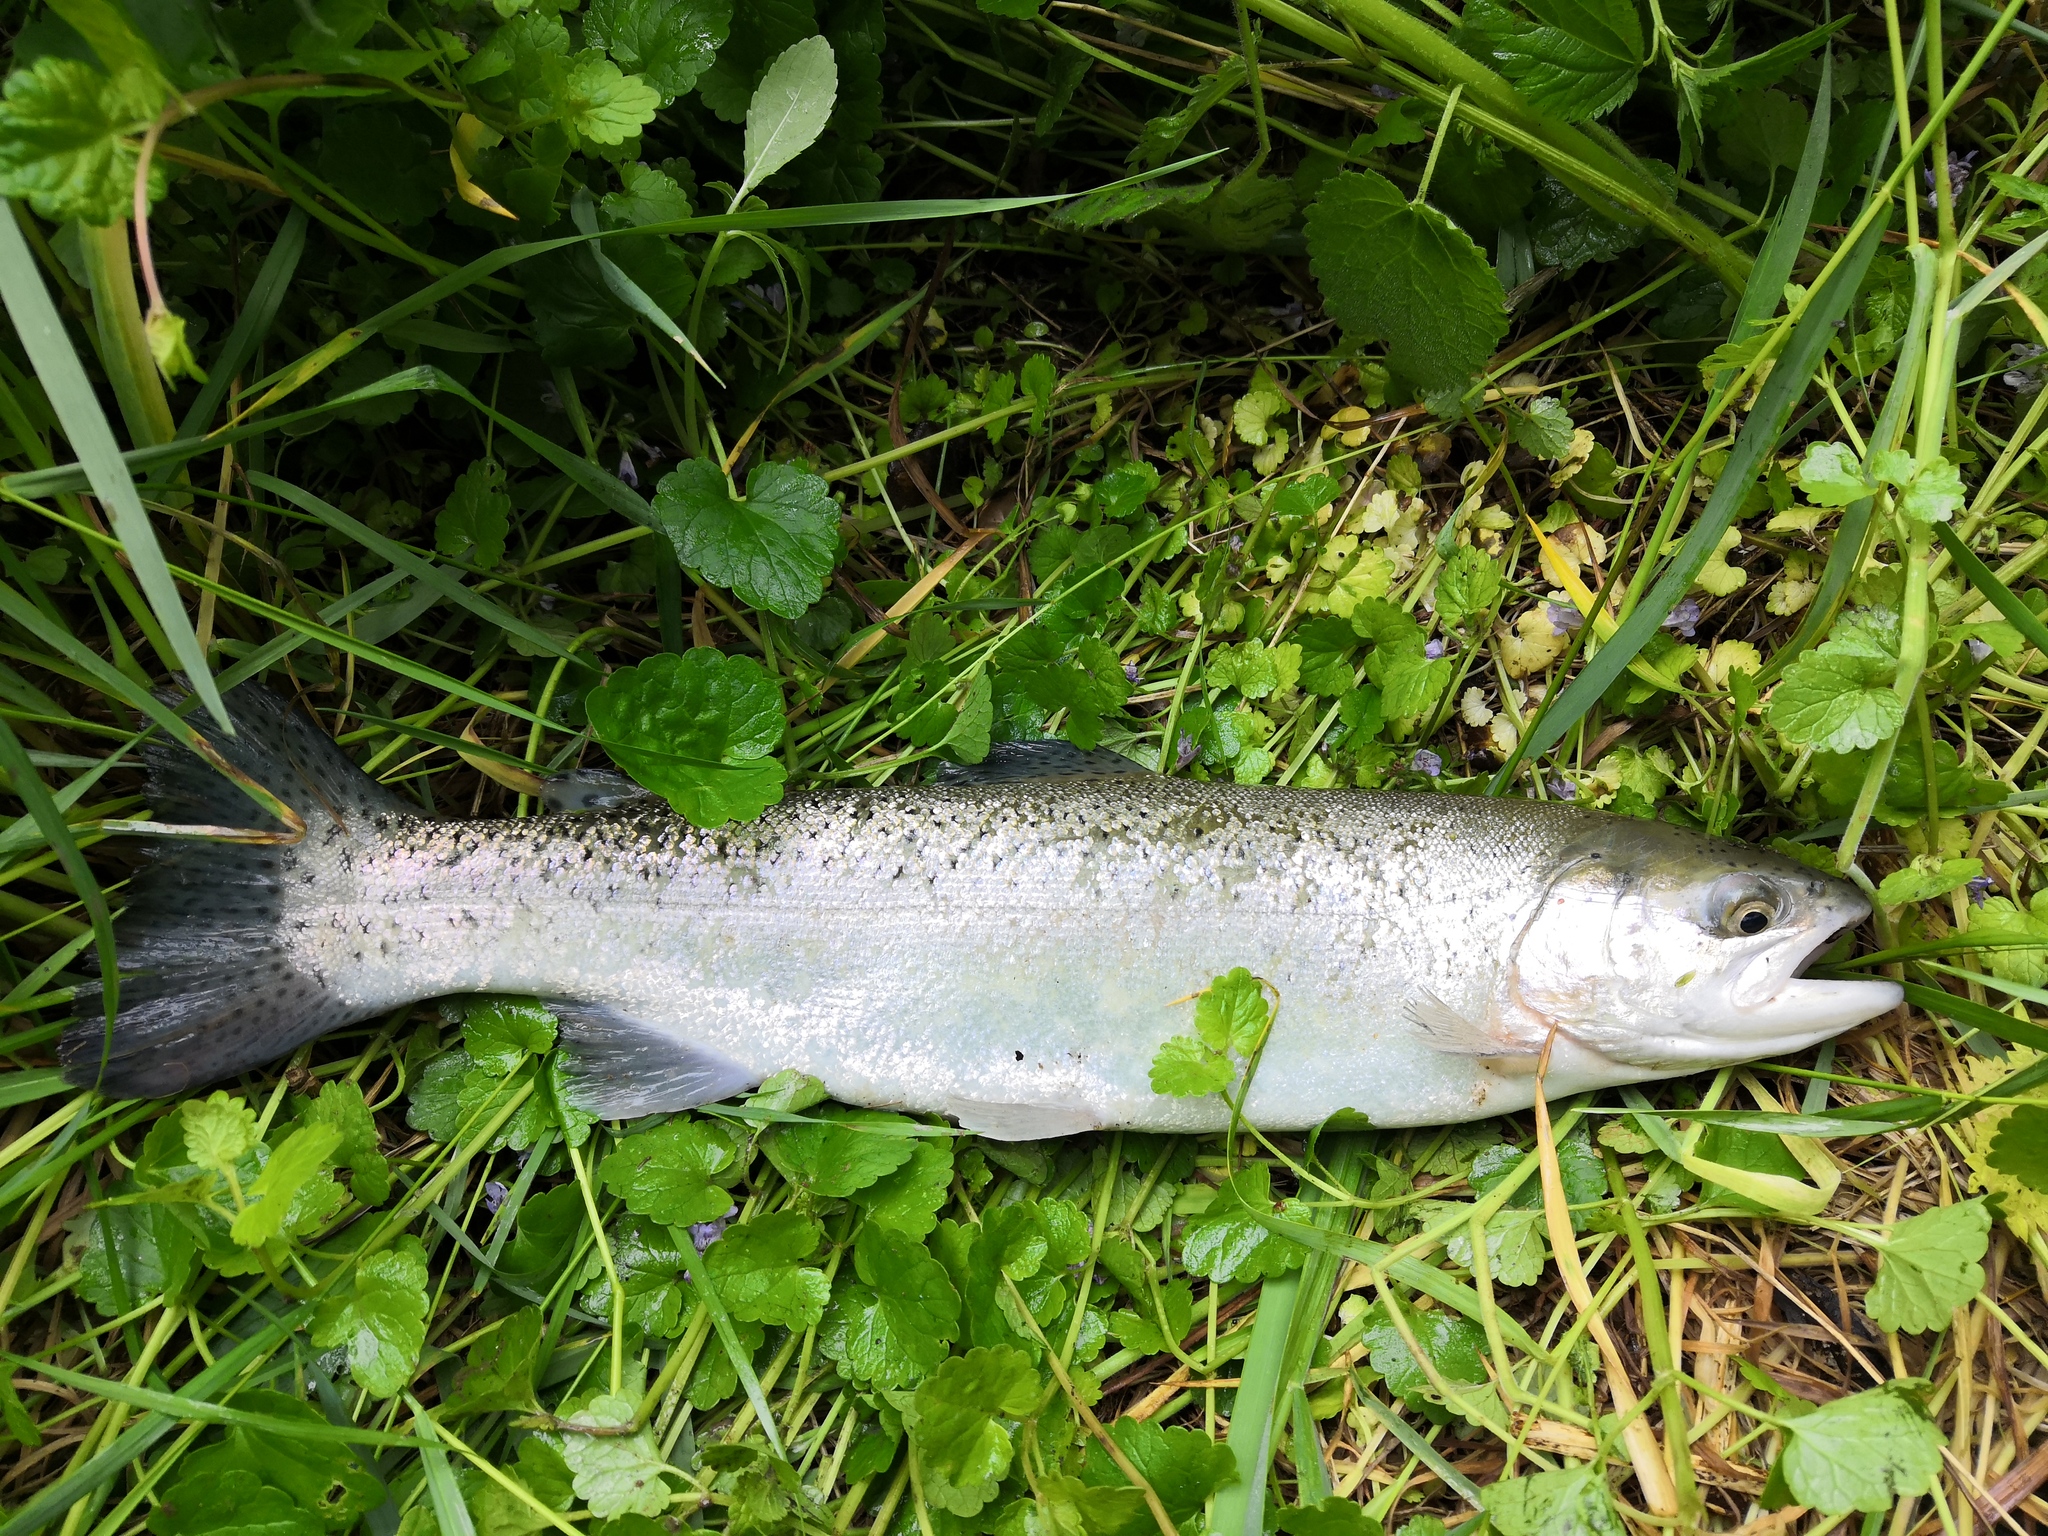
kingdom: Animalia
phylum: Chordata
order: Salmoniformes
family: Salmonidae
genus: Oncorhynchus
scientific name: Oncorhynchus mykiss
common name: Rainbow trout
